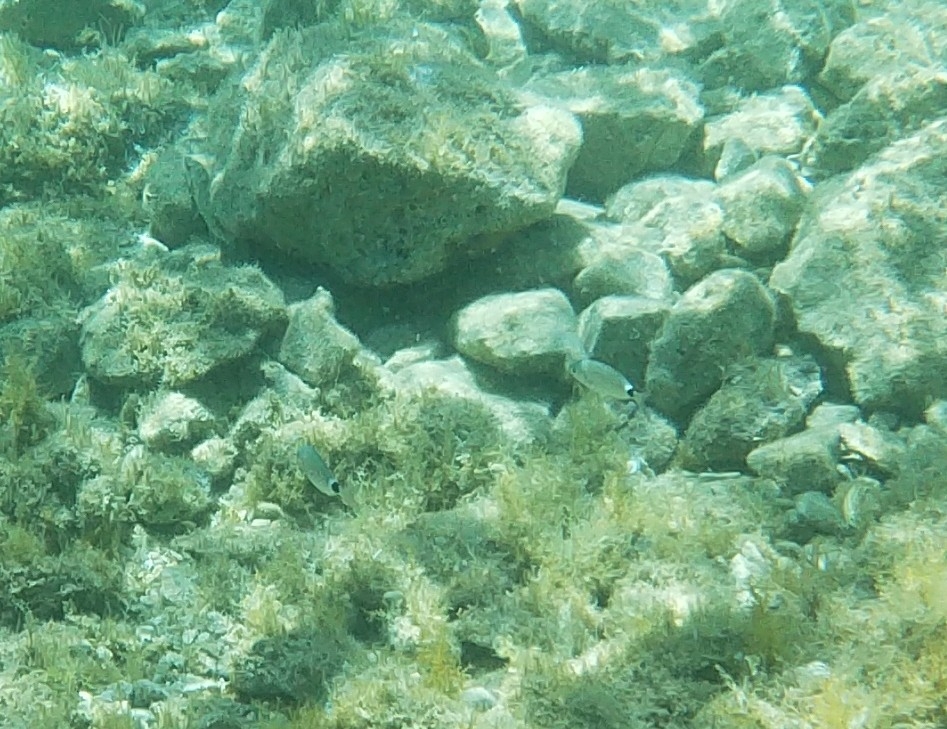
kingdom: Animalia
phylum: Chordata
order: Perciformes
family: Sparidae
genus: Oblada
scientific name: Oblada melanura
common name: Saddled seabream
